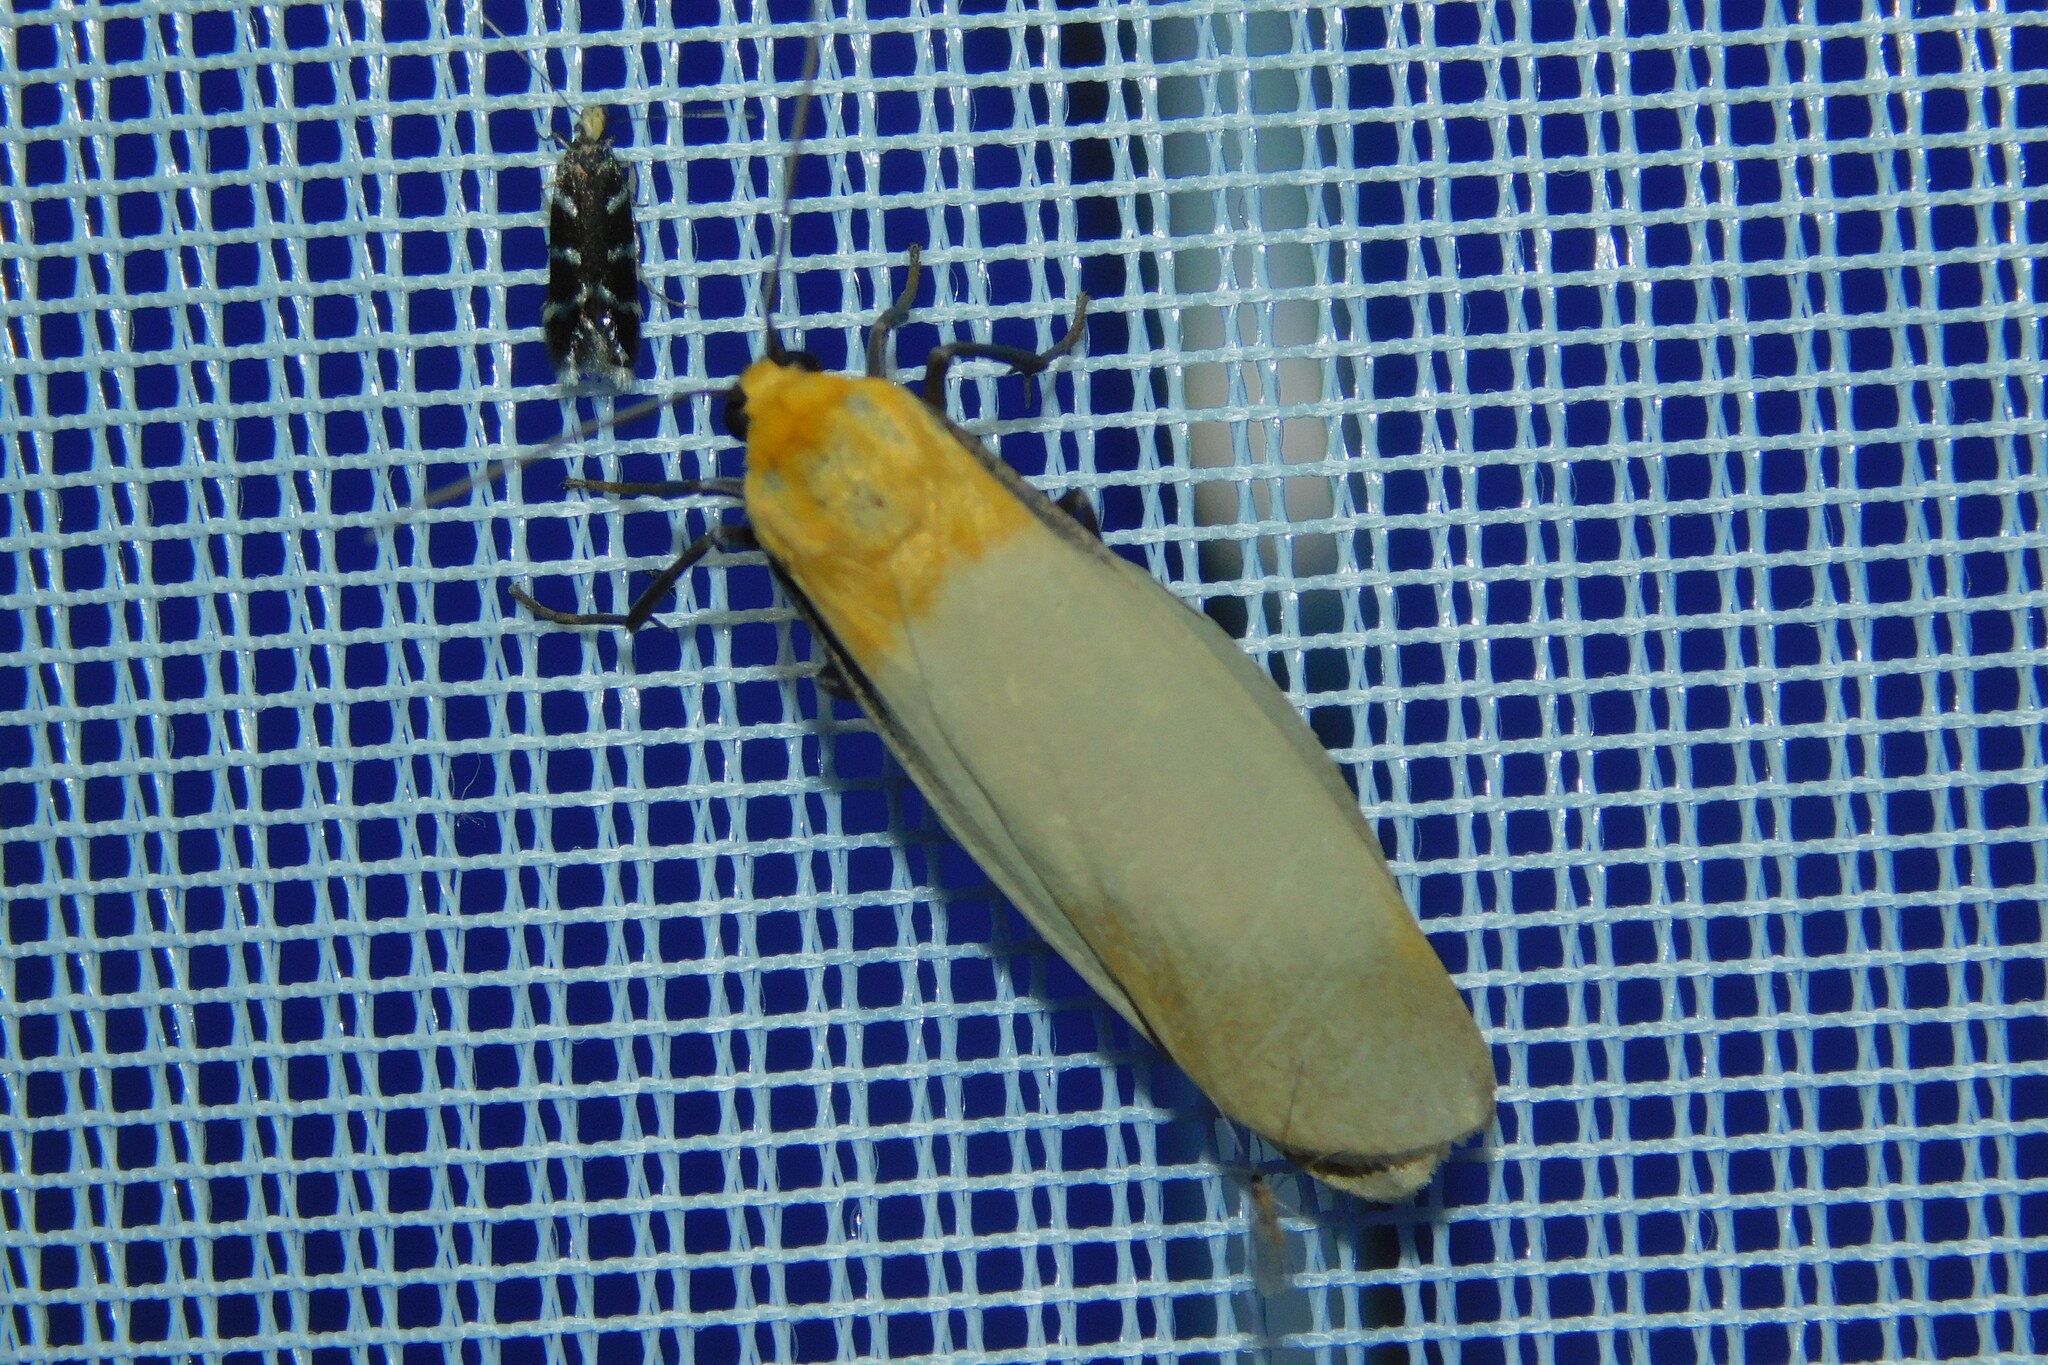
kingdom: Animalia
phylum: Arthropoda
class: Insecta
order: Lepidoptera
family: Erebidae
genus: Lithosia
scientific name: Lithosia quadra
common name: Four-spotted footman
